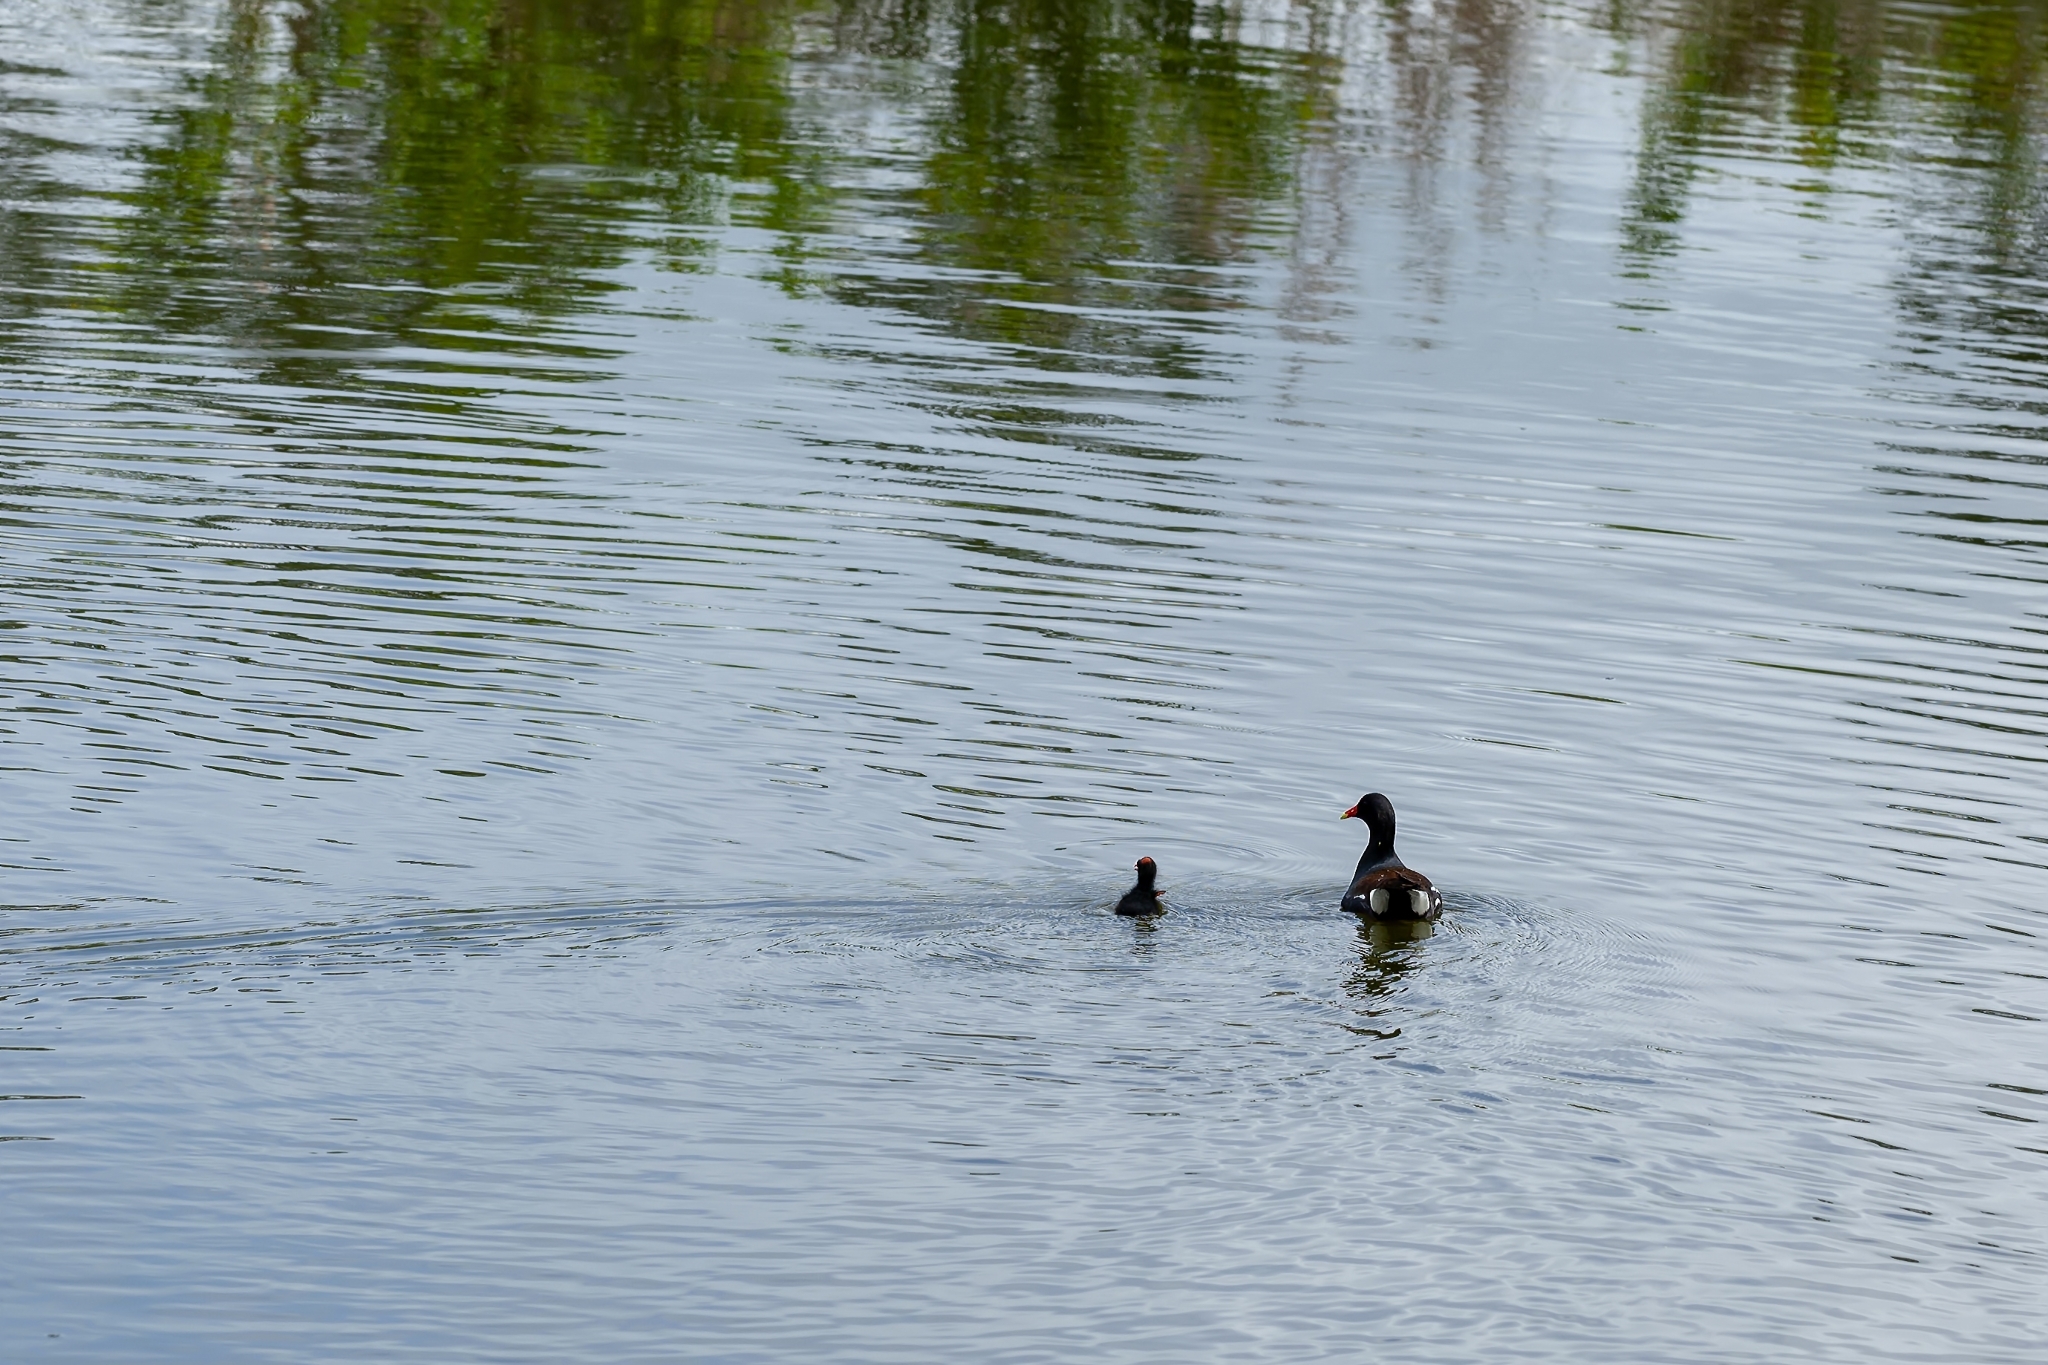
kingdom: Animalia
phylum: Chordata
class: Aves
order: Gruiformes
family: Rallidae
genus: Gallinula
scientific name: Gallinula chloropus
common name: Common moorhen
